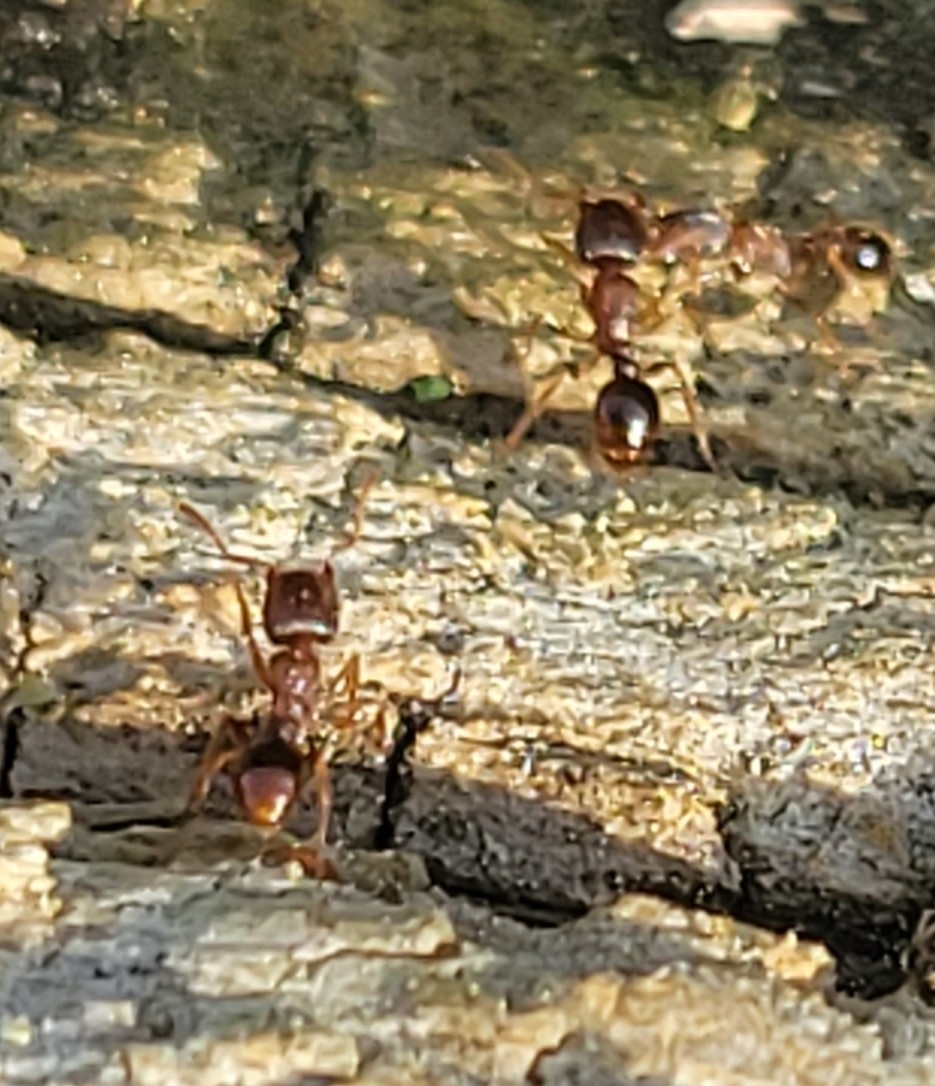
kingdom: Animalia
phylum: Arthropoda
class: Insecta
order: Hymenoptera
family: Formicidae
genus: Tetramorium
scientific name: Tetramorium immigrans
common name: Pavement ant
